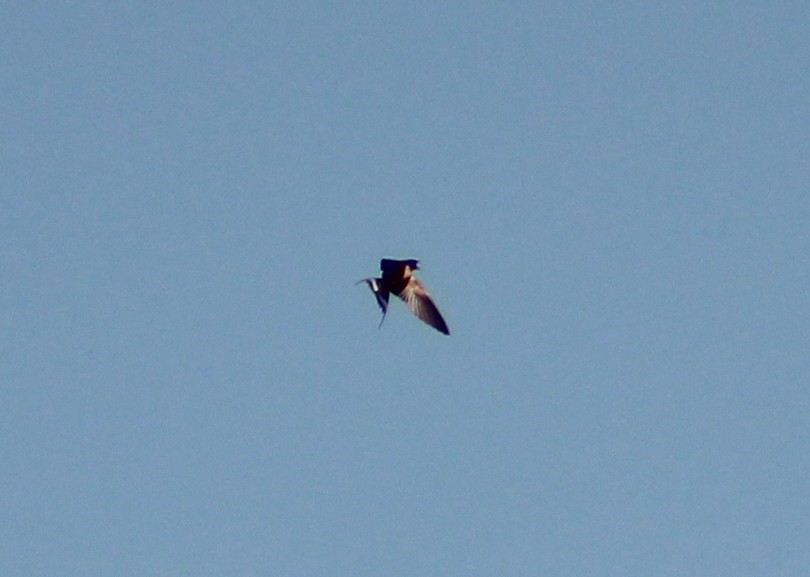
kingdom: Animalia
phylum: Chordata
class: Aves
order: Passeriformes
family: Hirundinidae
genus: Hirundo
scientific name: Hirundo rustica
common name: Barn swallow
